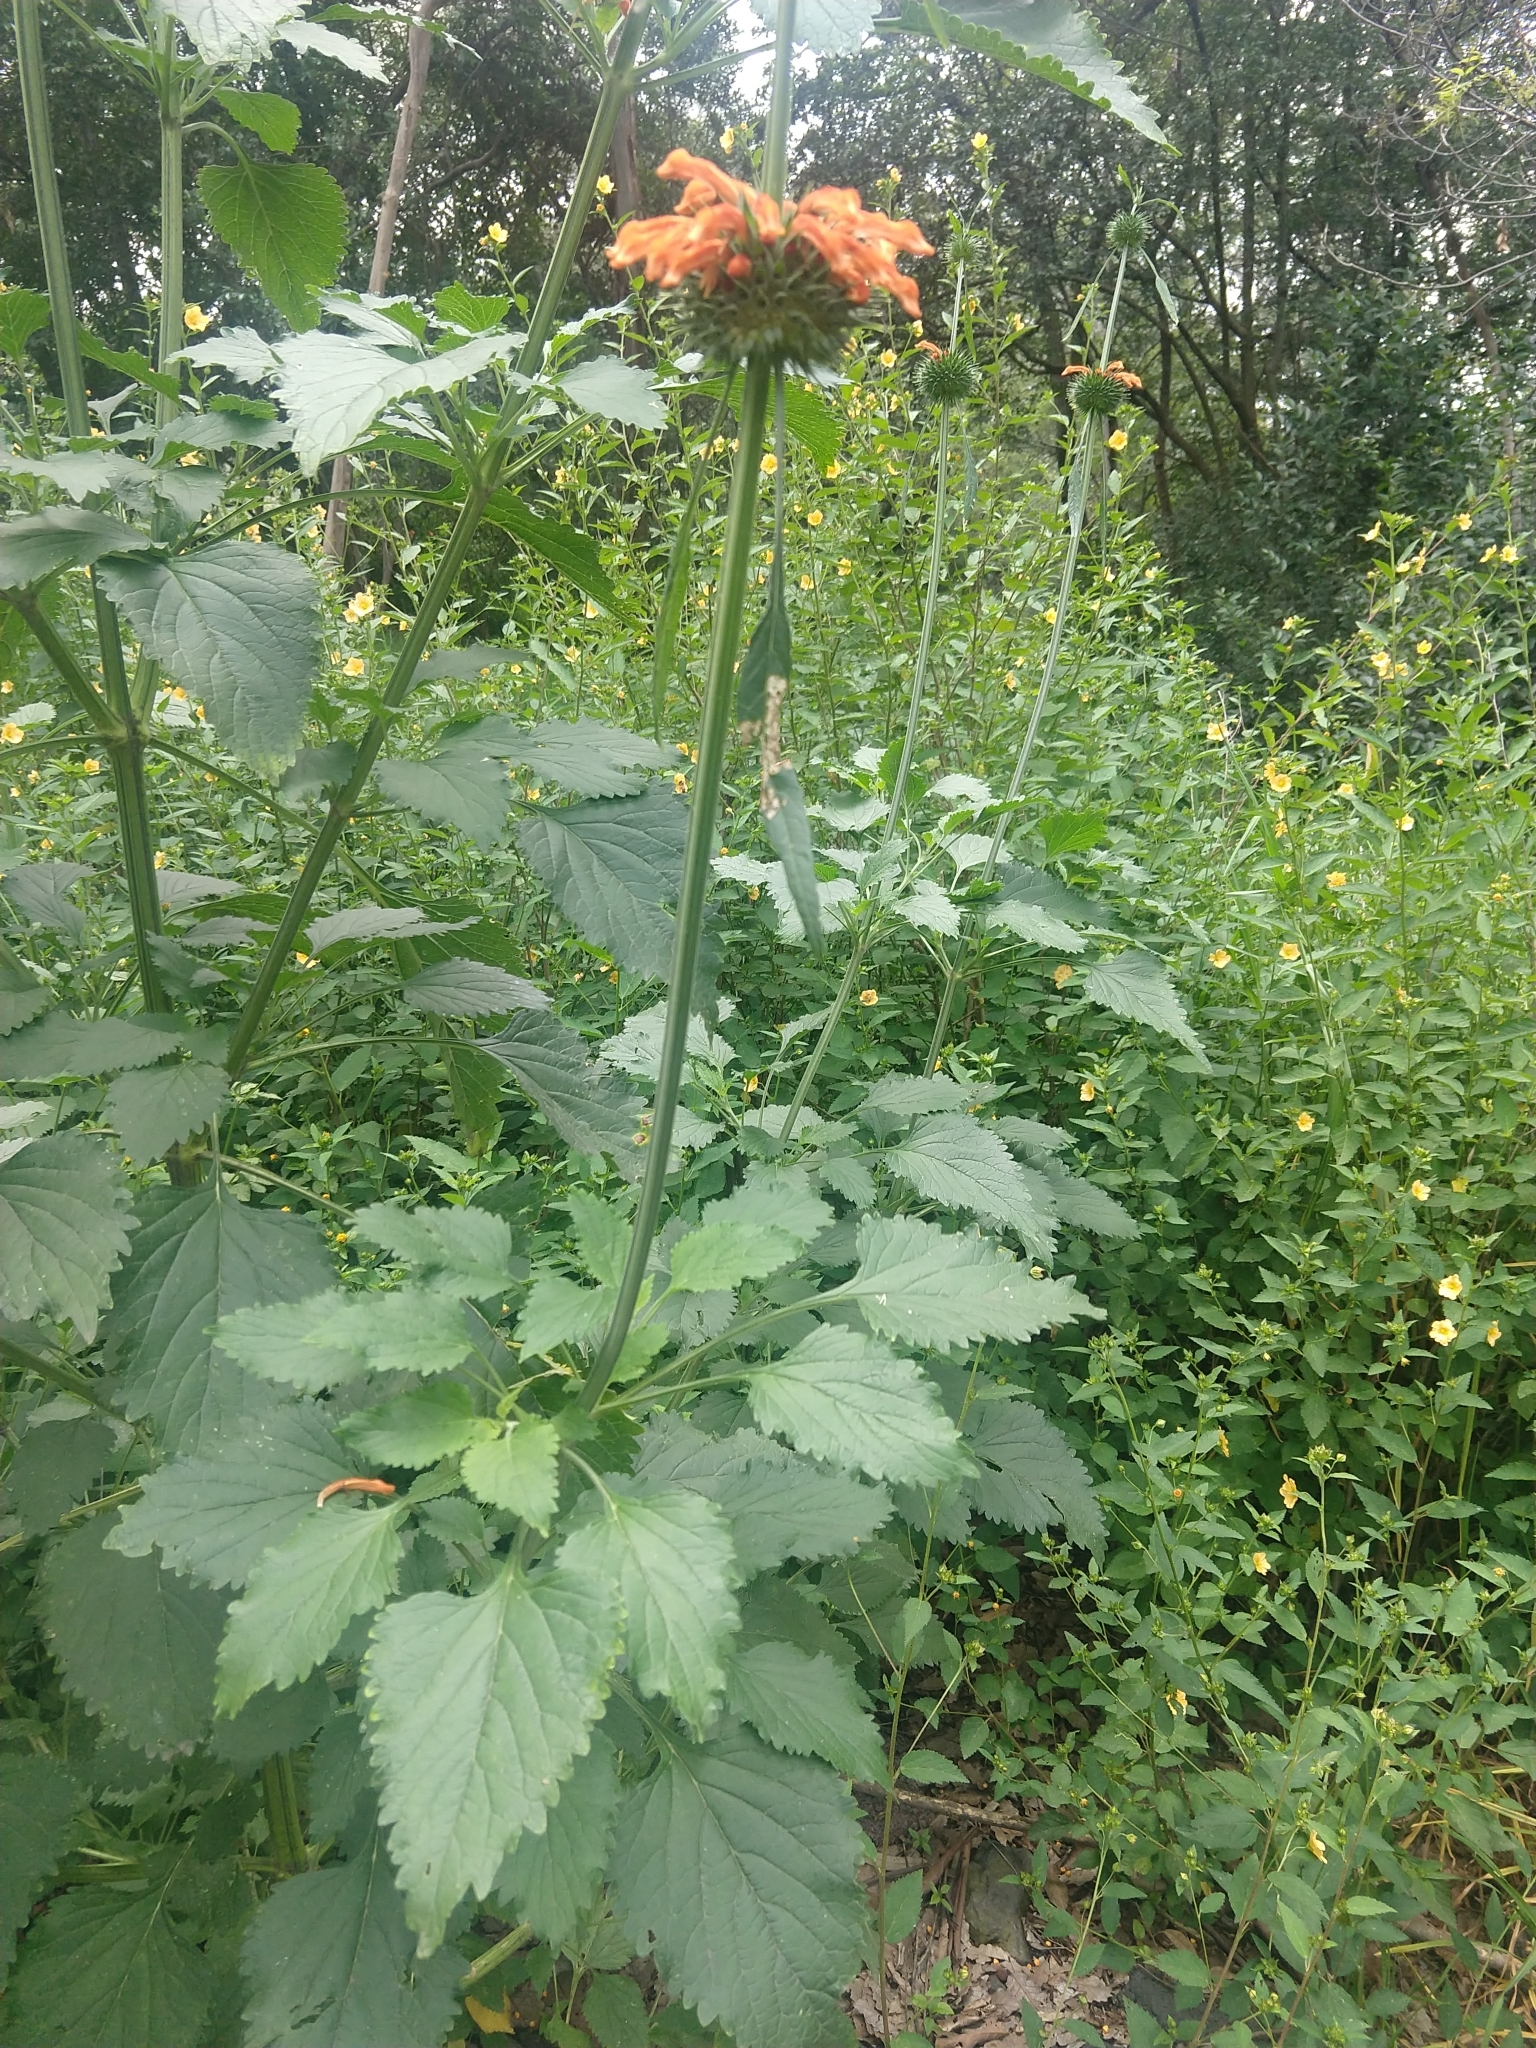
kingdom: Plantae
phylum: Tracheophyta
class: Magnoliopsida
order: Lamiales
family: Lamiaceae
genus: Leonotis
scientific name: Leonotis nepetifolia
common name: Christmas candlestick
